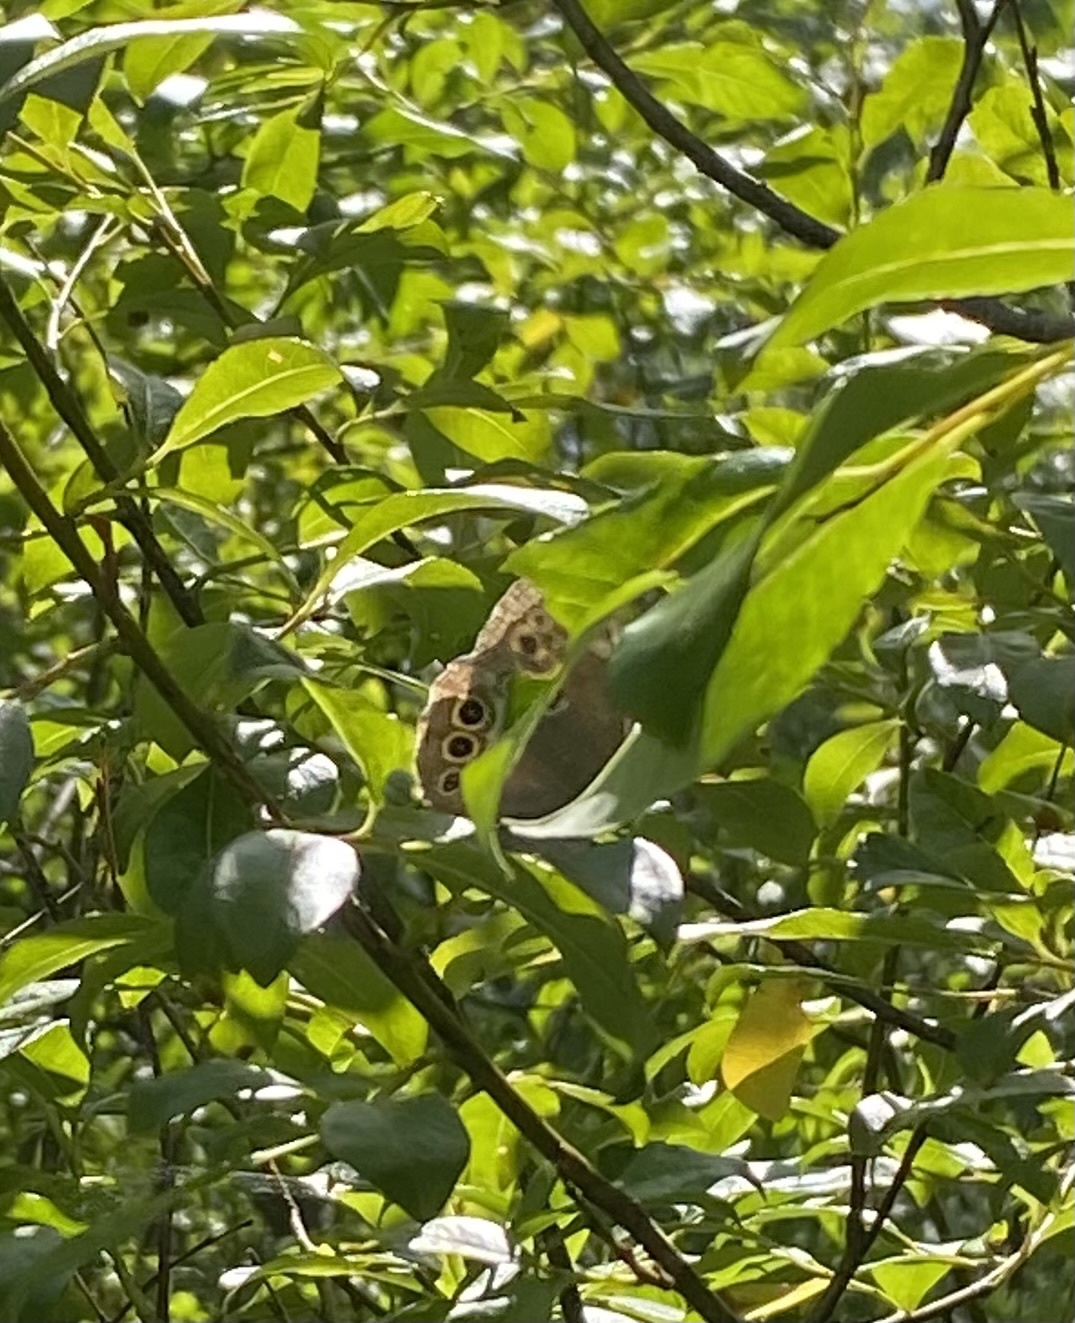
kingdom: Animalia
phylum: Arthropoda
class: Insecta
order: Lepidoptera
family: Nymphalidae
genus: Pararge
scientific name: Pararge Lopinga achine
